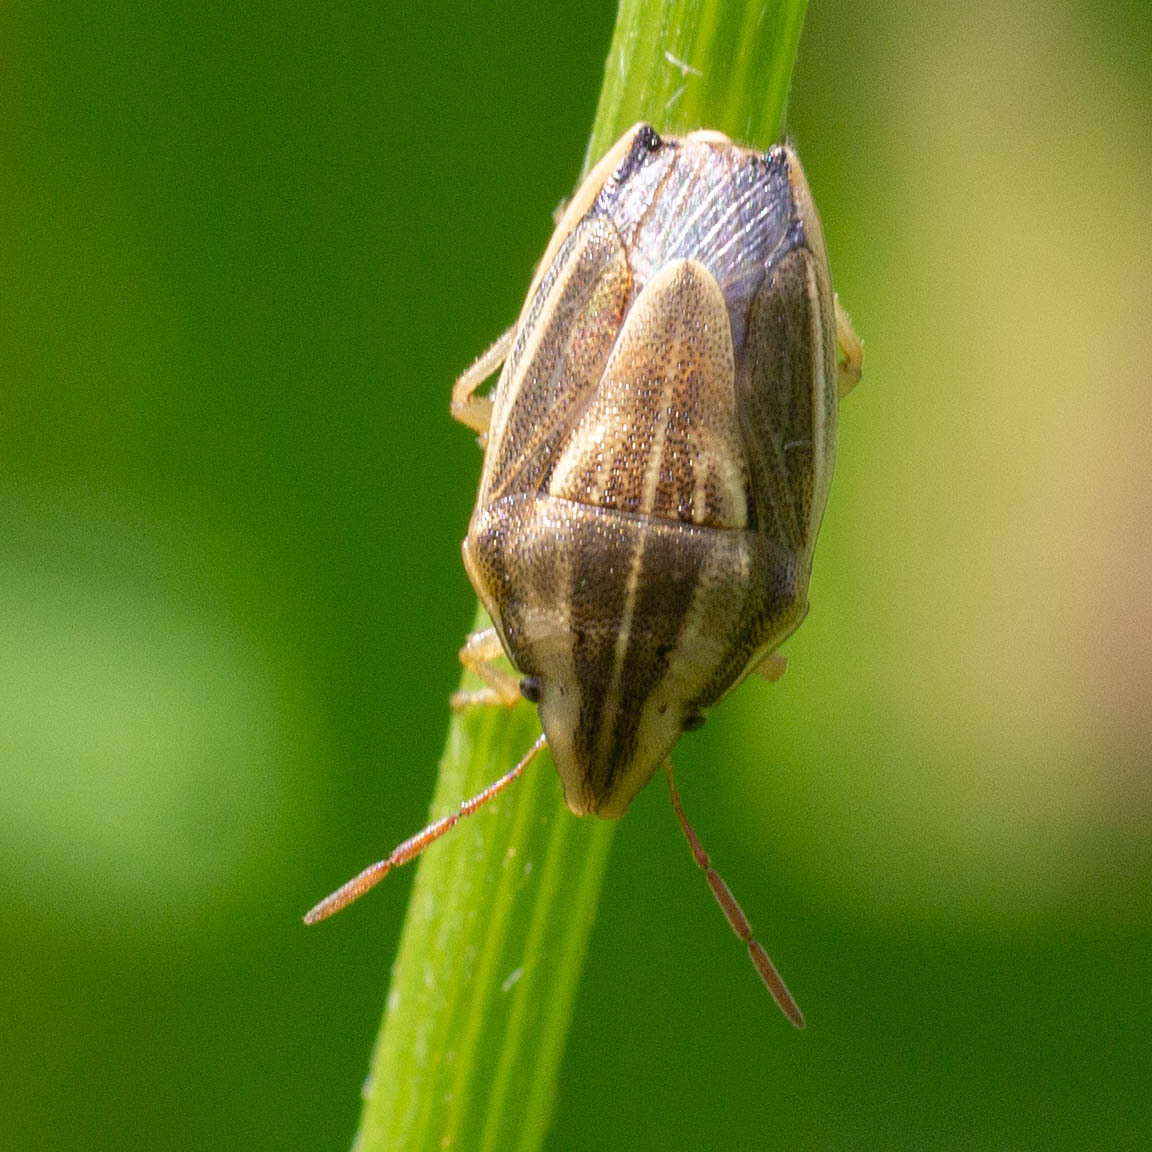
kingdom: Animalia
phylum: Arthropoda
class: Insecta
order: Hemiptera
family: Pentatomidae
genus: Aelia
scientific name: Aelia acuminata
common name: Bishop's mitre
